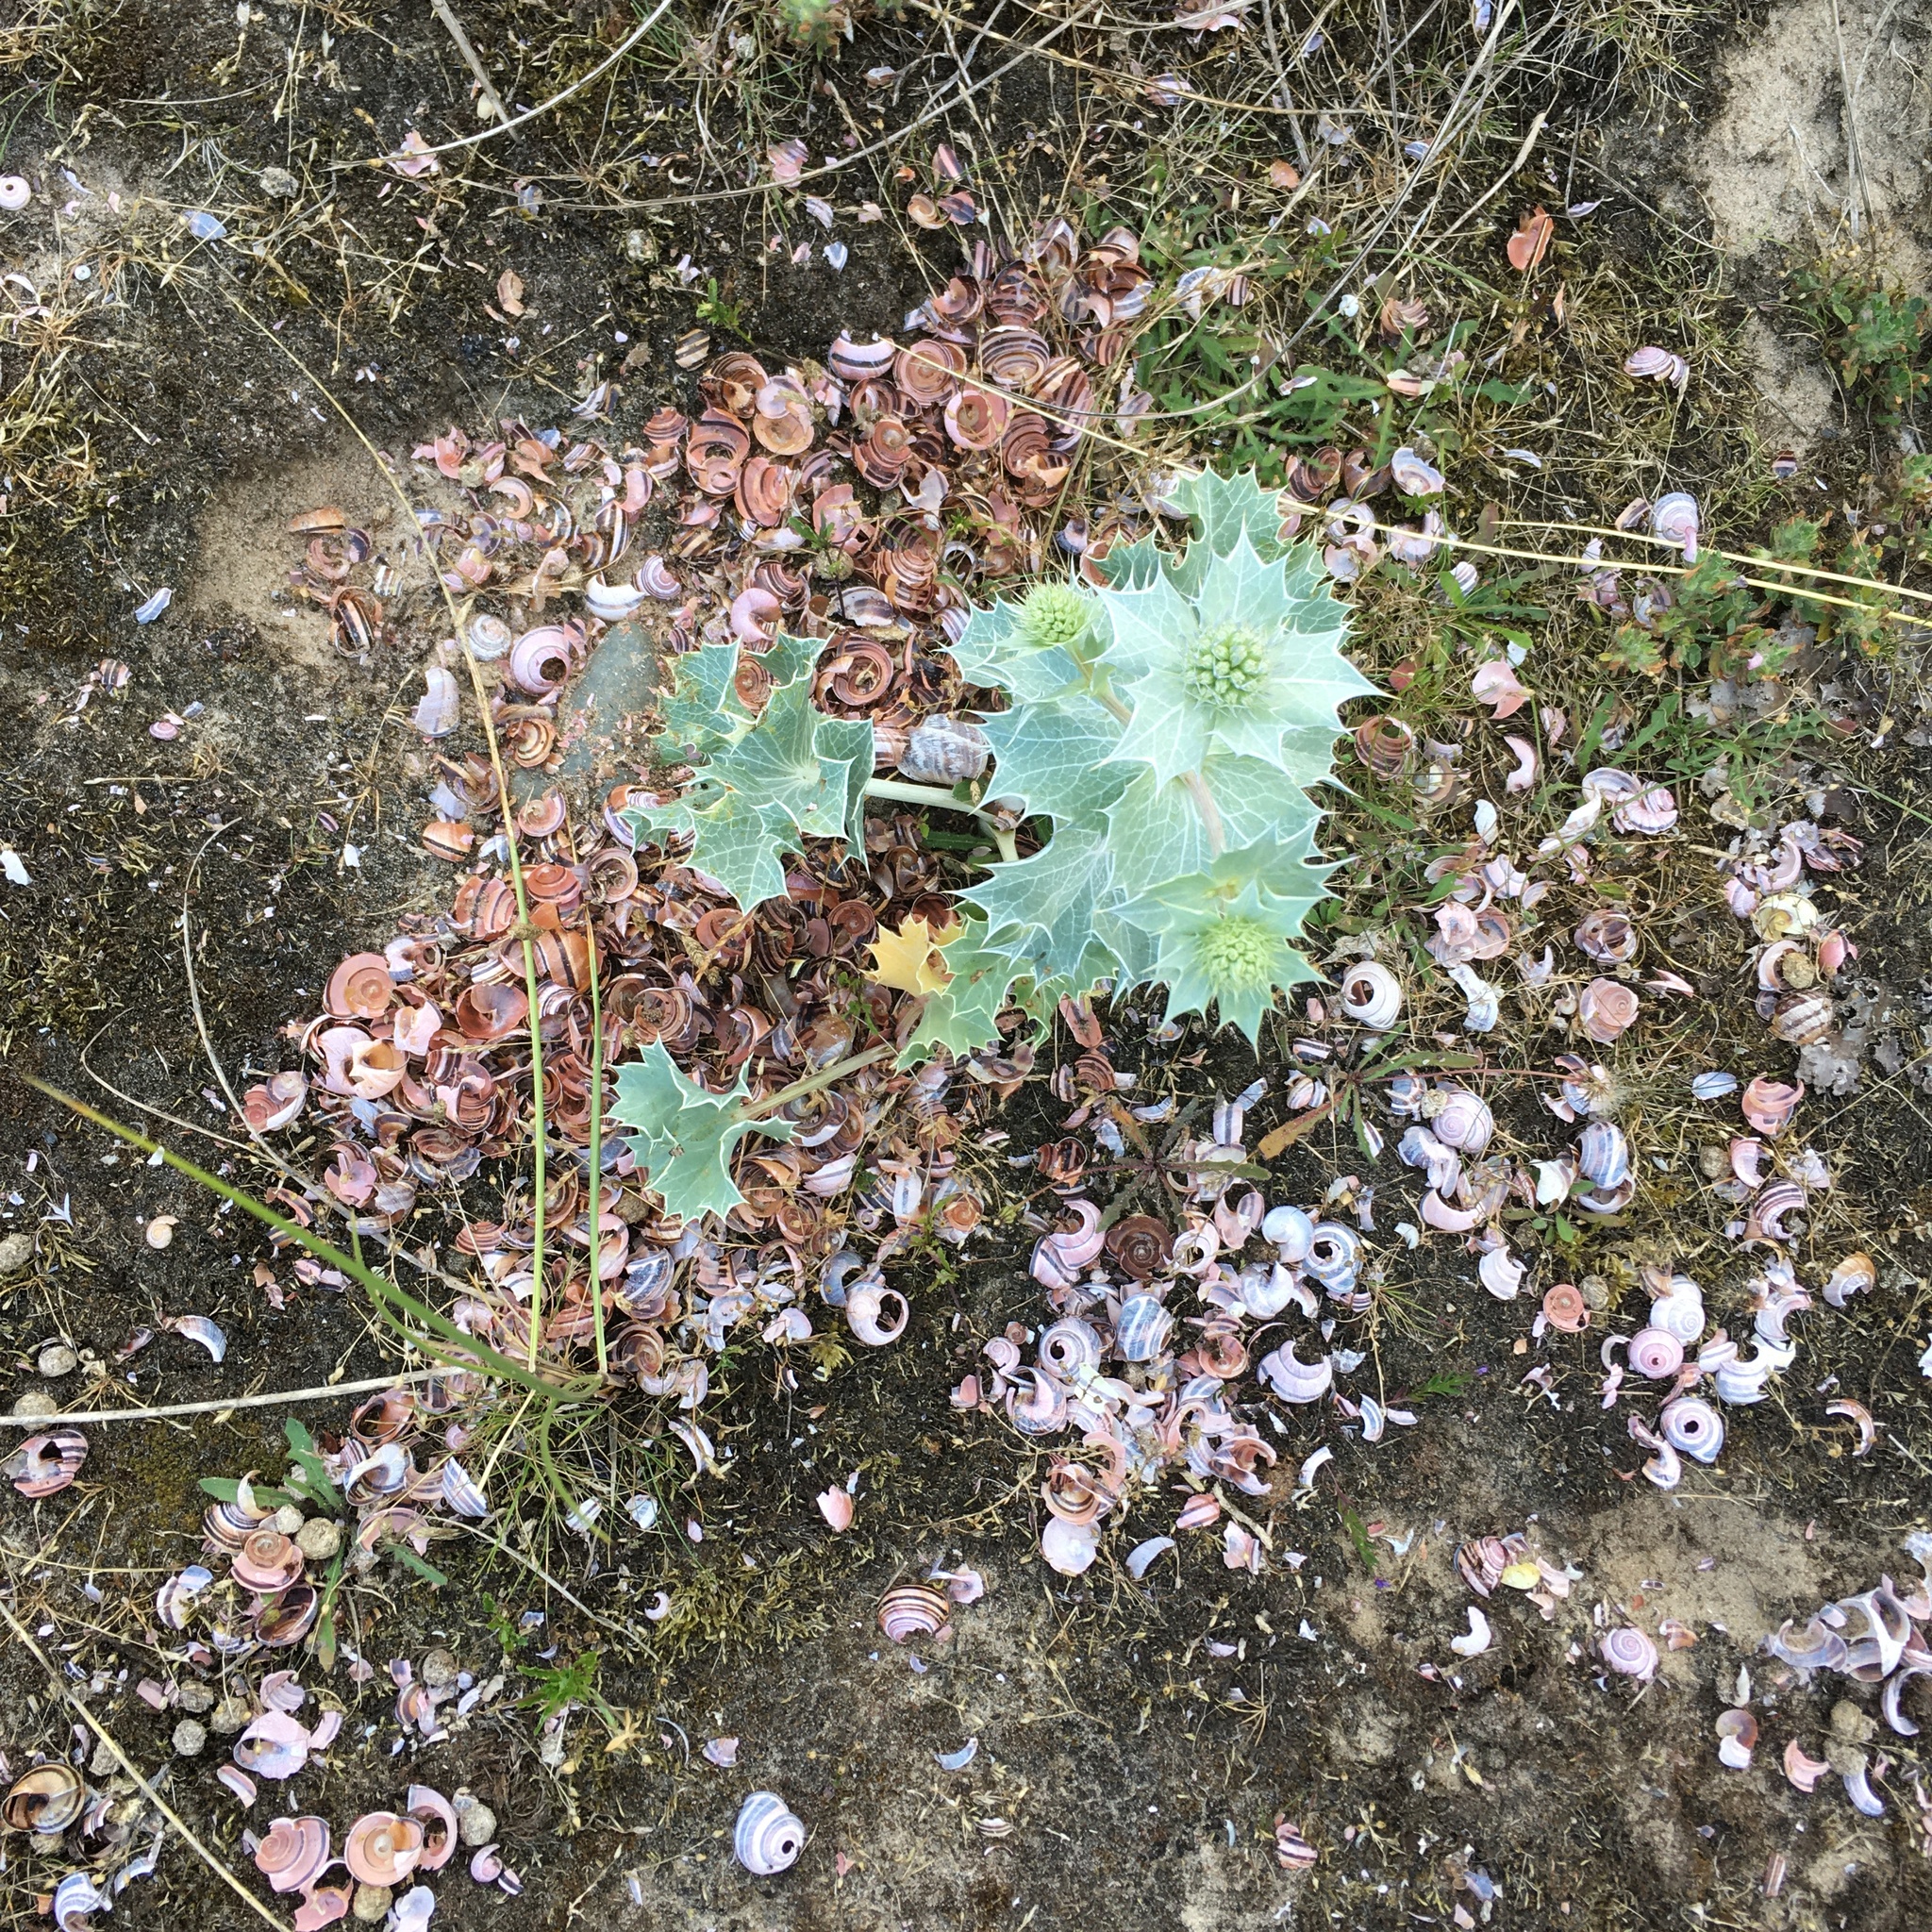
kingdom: Animalia
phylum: Chordata
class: Aves
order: Passeriformes
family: Turdidae
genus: Turdus
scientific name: Turdus philomelos
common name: Song thrush
